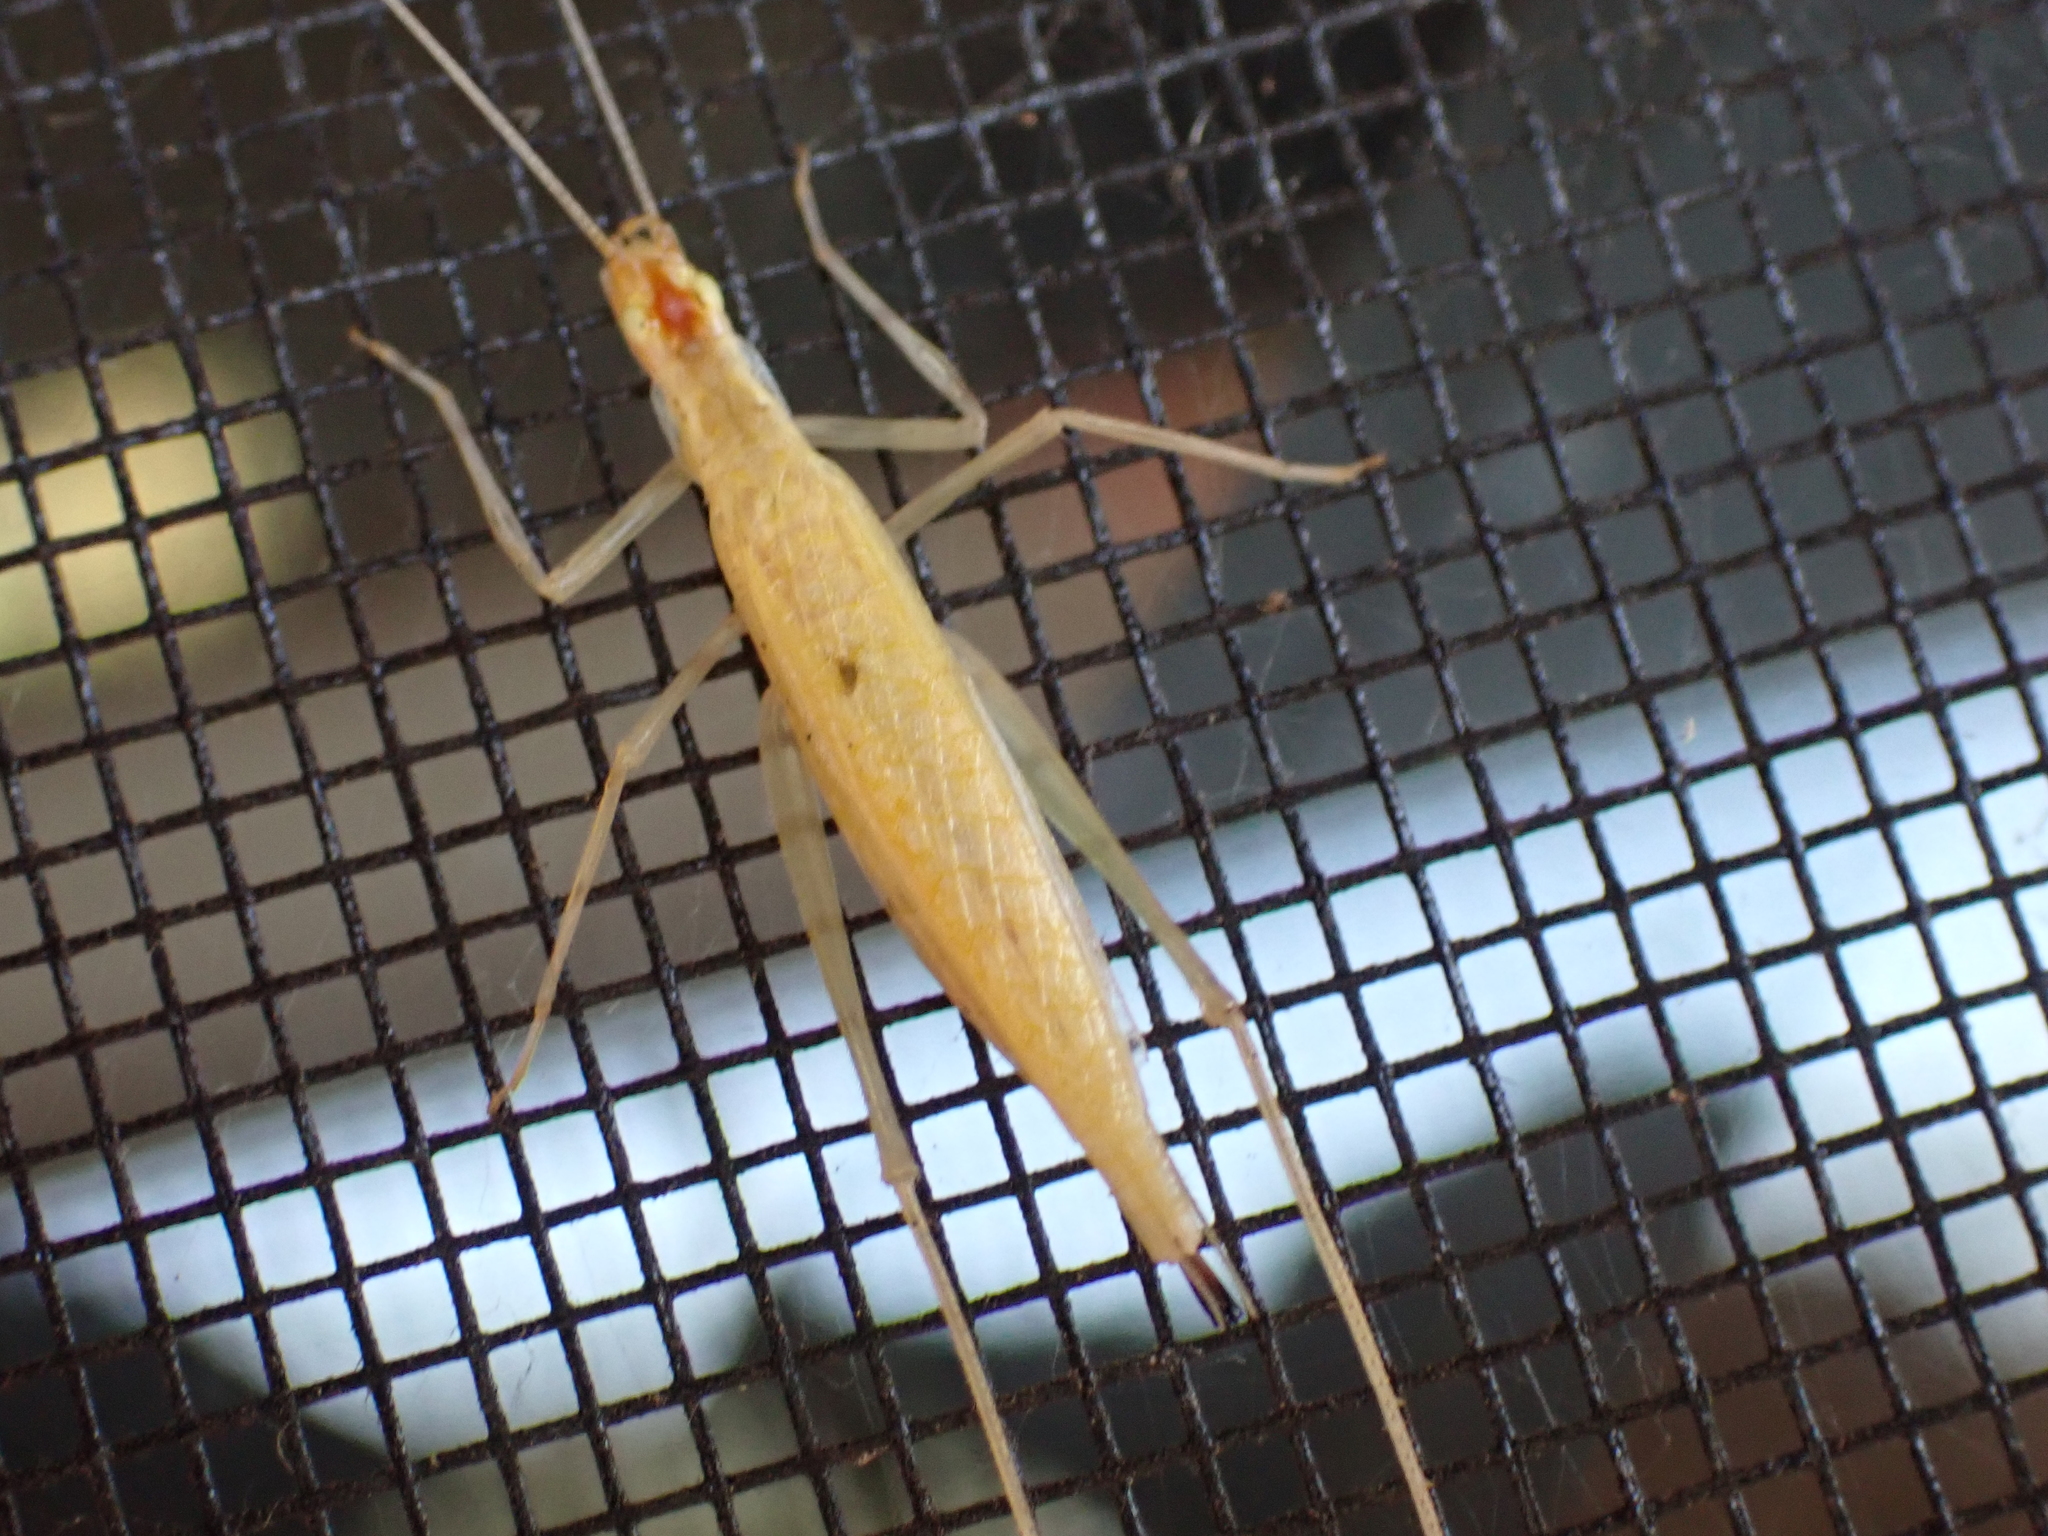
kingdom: Animalia
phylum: Arthropoda
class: Insecta
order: Orthoptera
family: Gryllidae
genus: Oecanthus
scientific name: Oecanthus niveus
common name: Narrow-winged tree cricket
